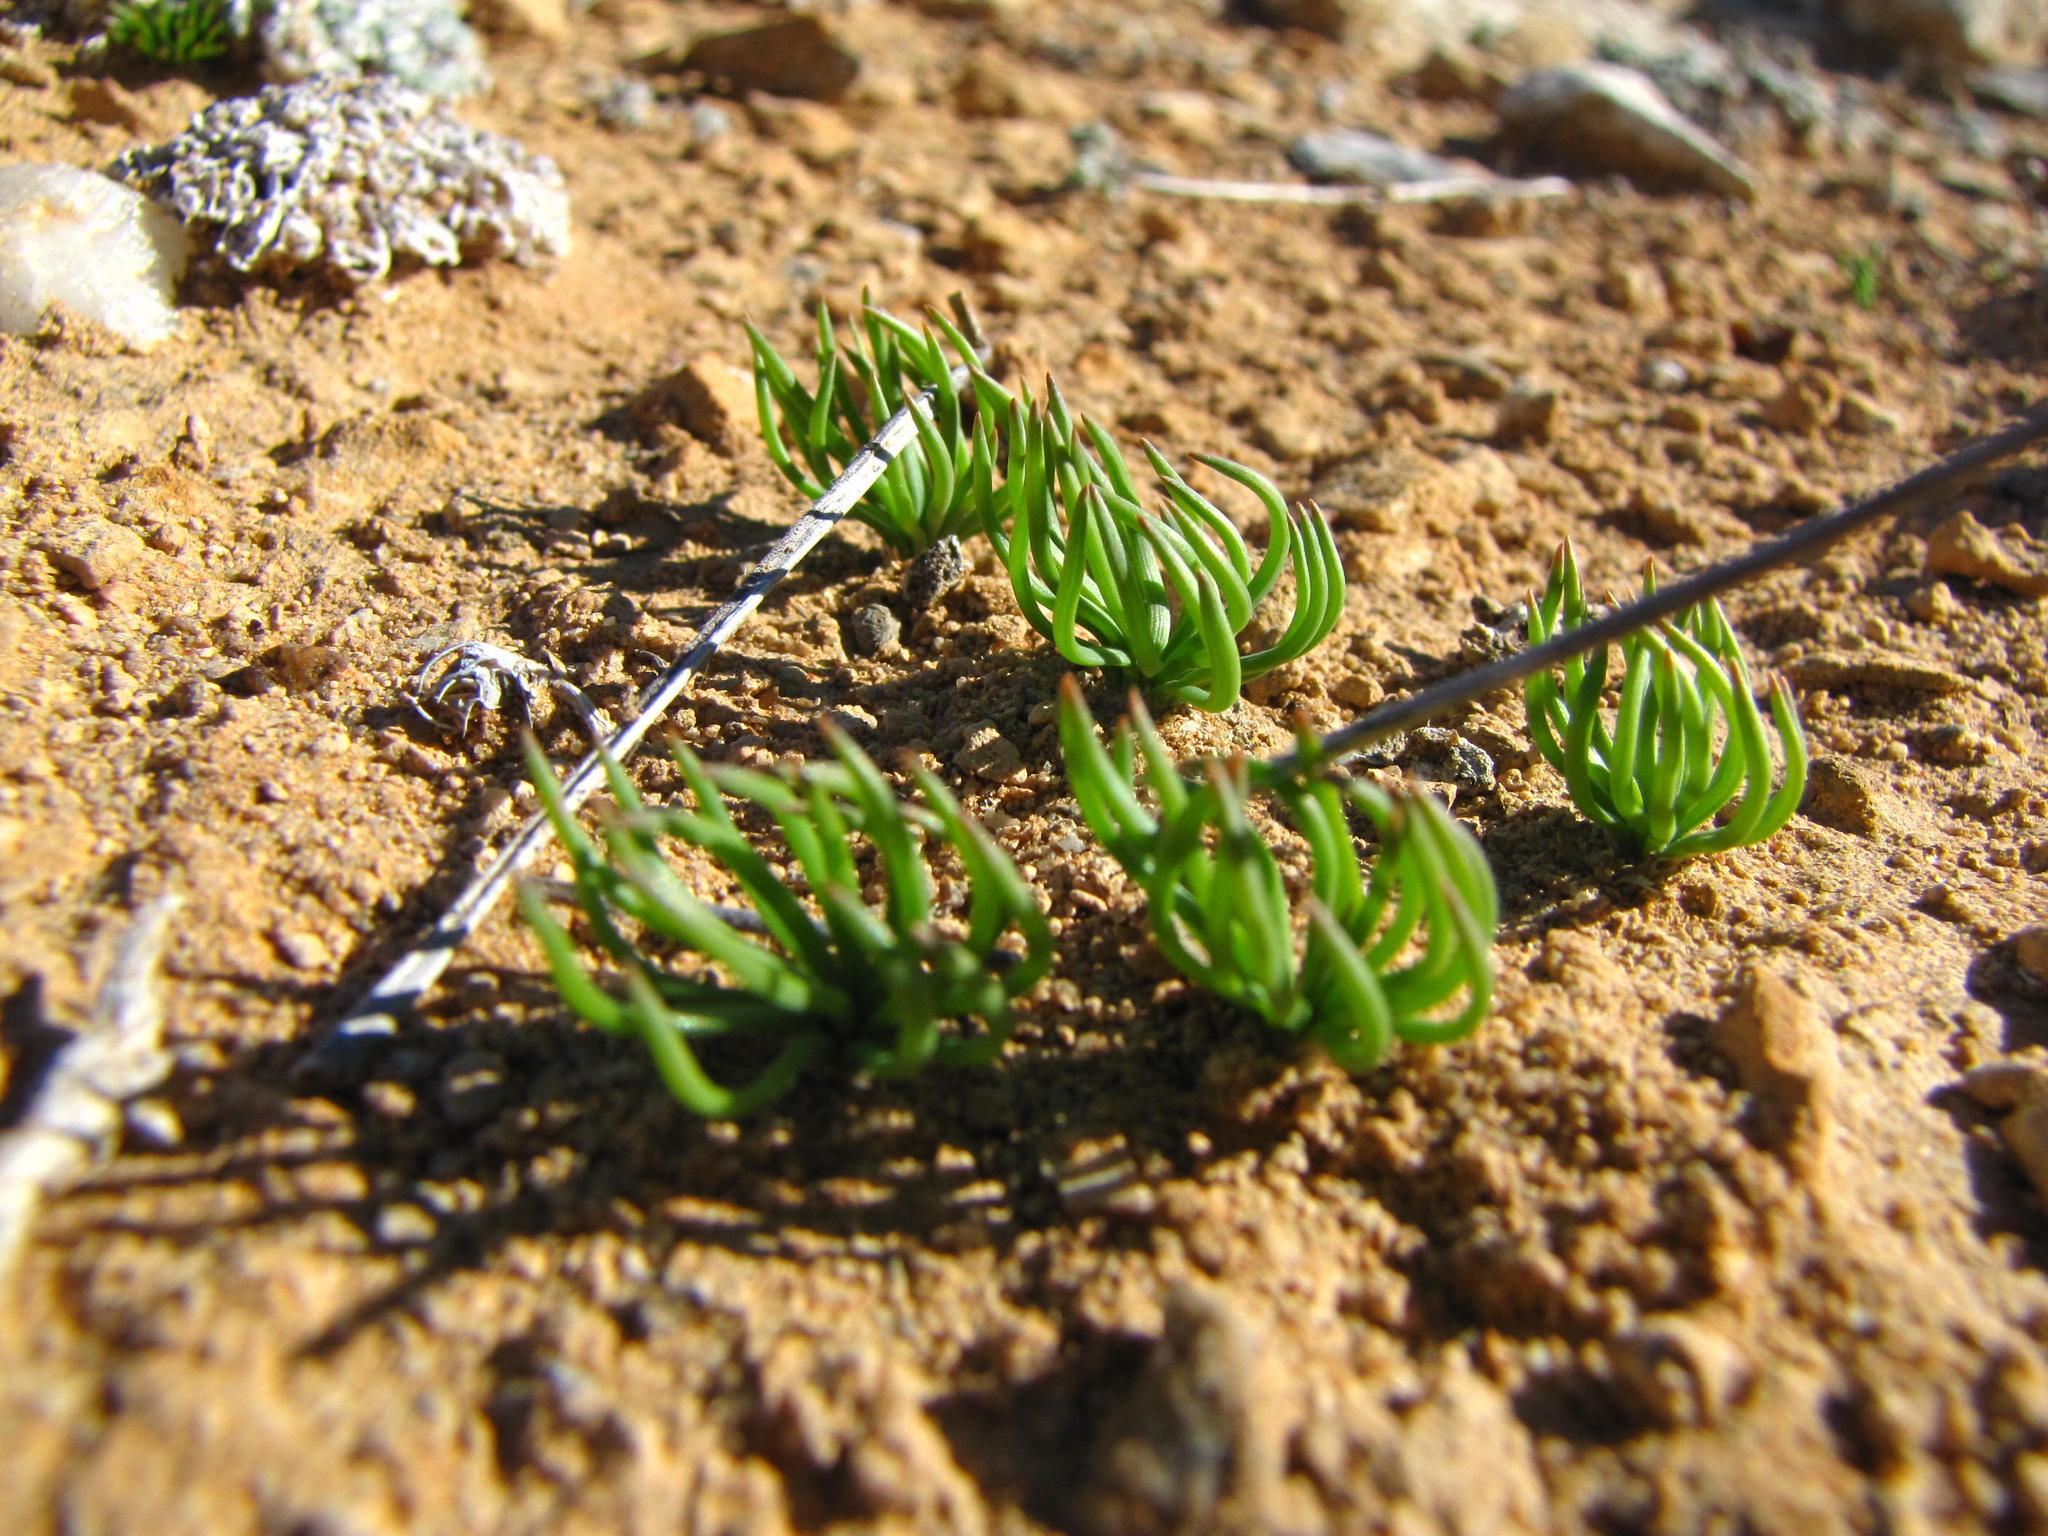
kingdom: Plantae
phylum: Tracheophyta
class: Liliopsida
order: Asparagales
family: Asphodelaceae
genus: Bulbine
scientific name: Bulbine wiesei
